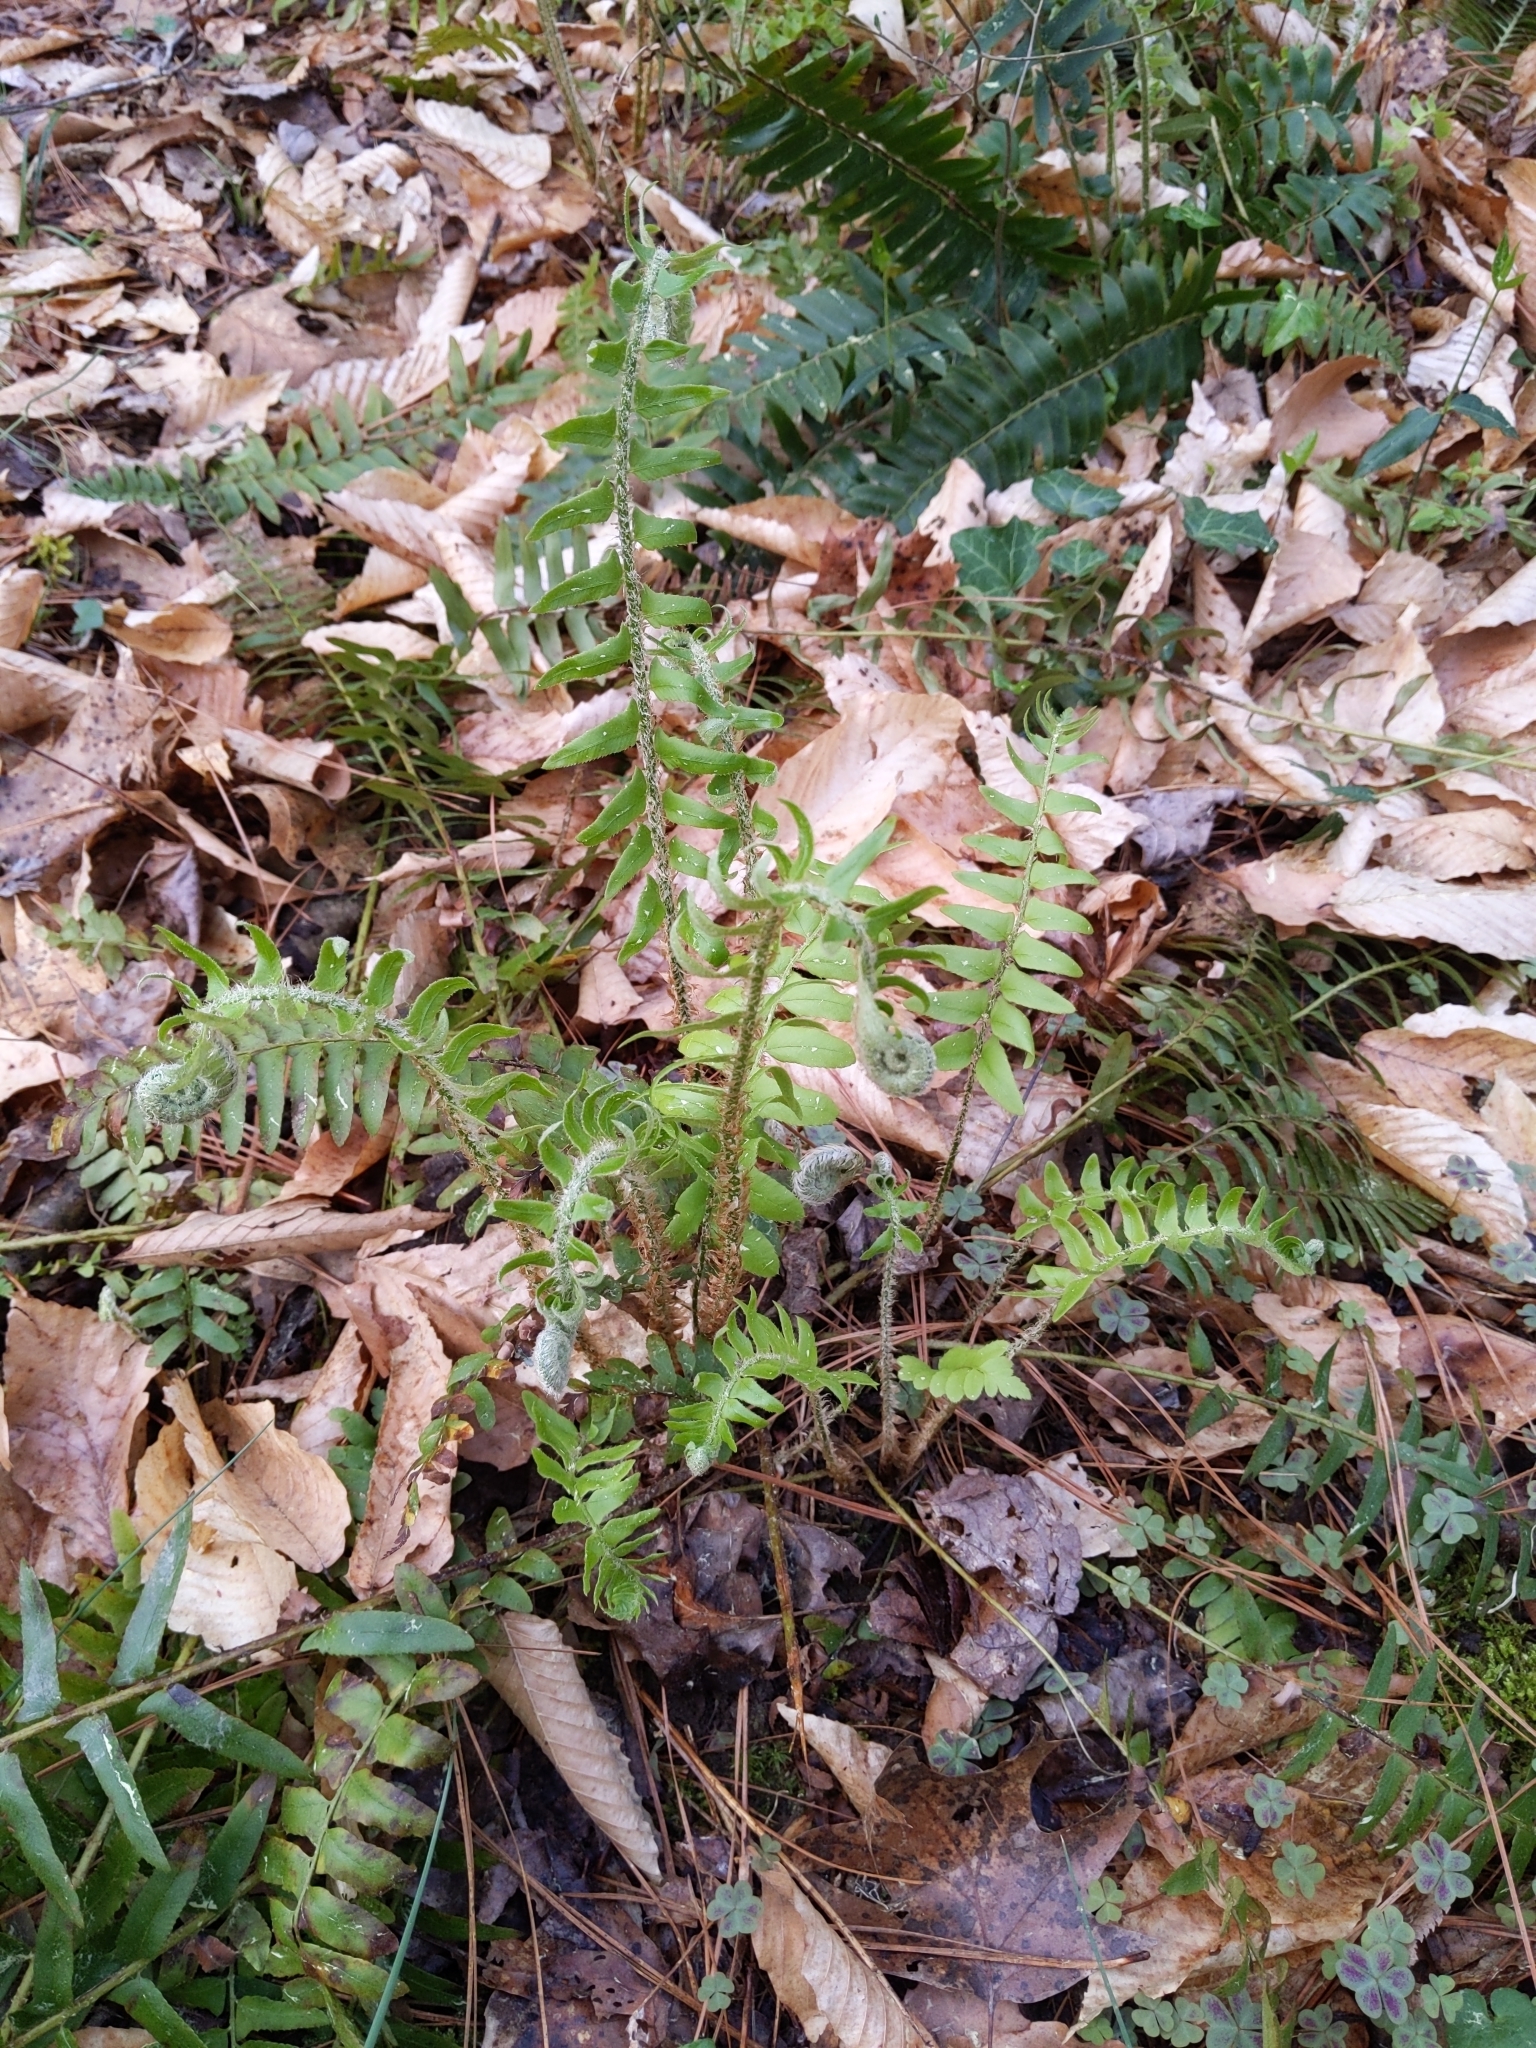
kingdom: Plantae
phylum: Tracheophyta
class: Polypodiopsida
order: Polypodiales
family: Dryopteridaceae
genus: Polystichum
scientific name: Polystichum acrostichoides
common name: Christmas fern
